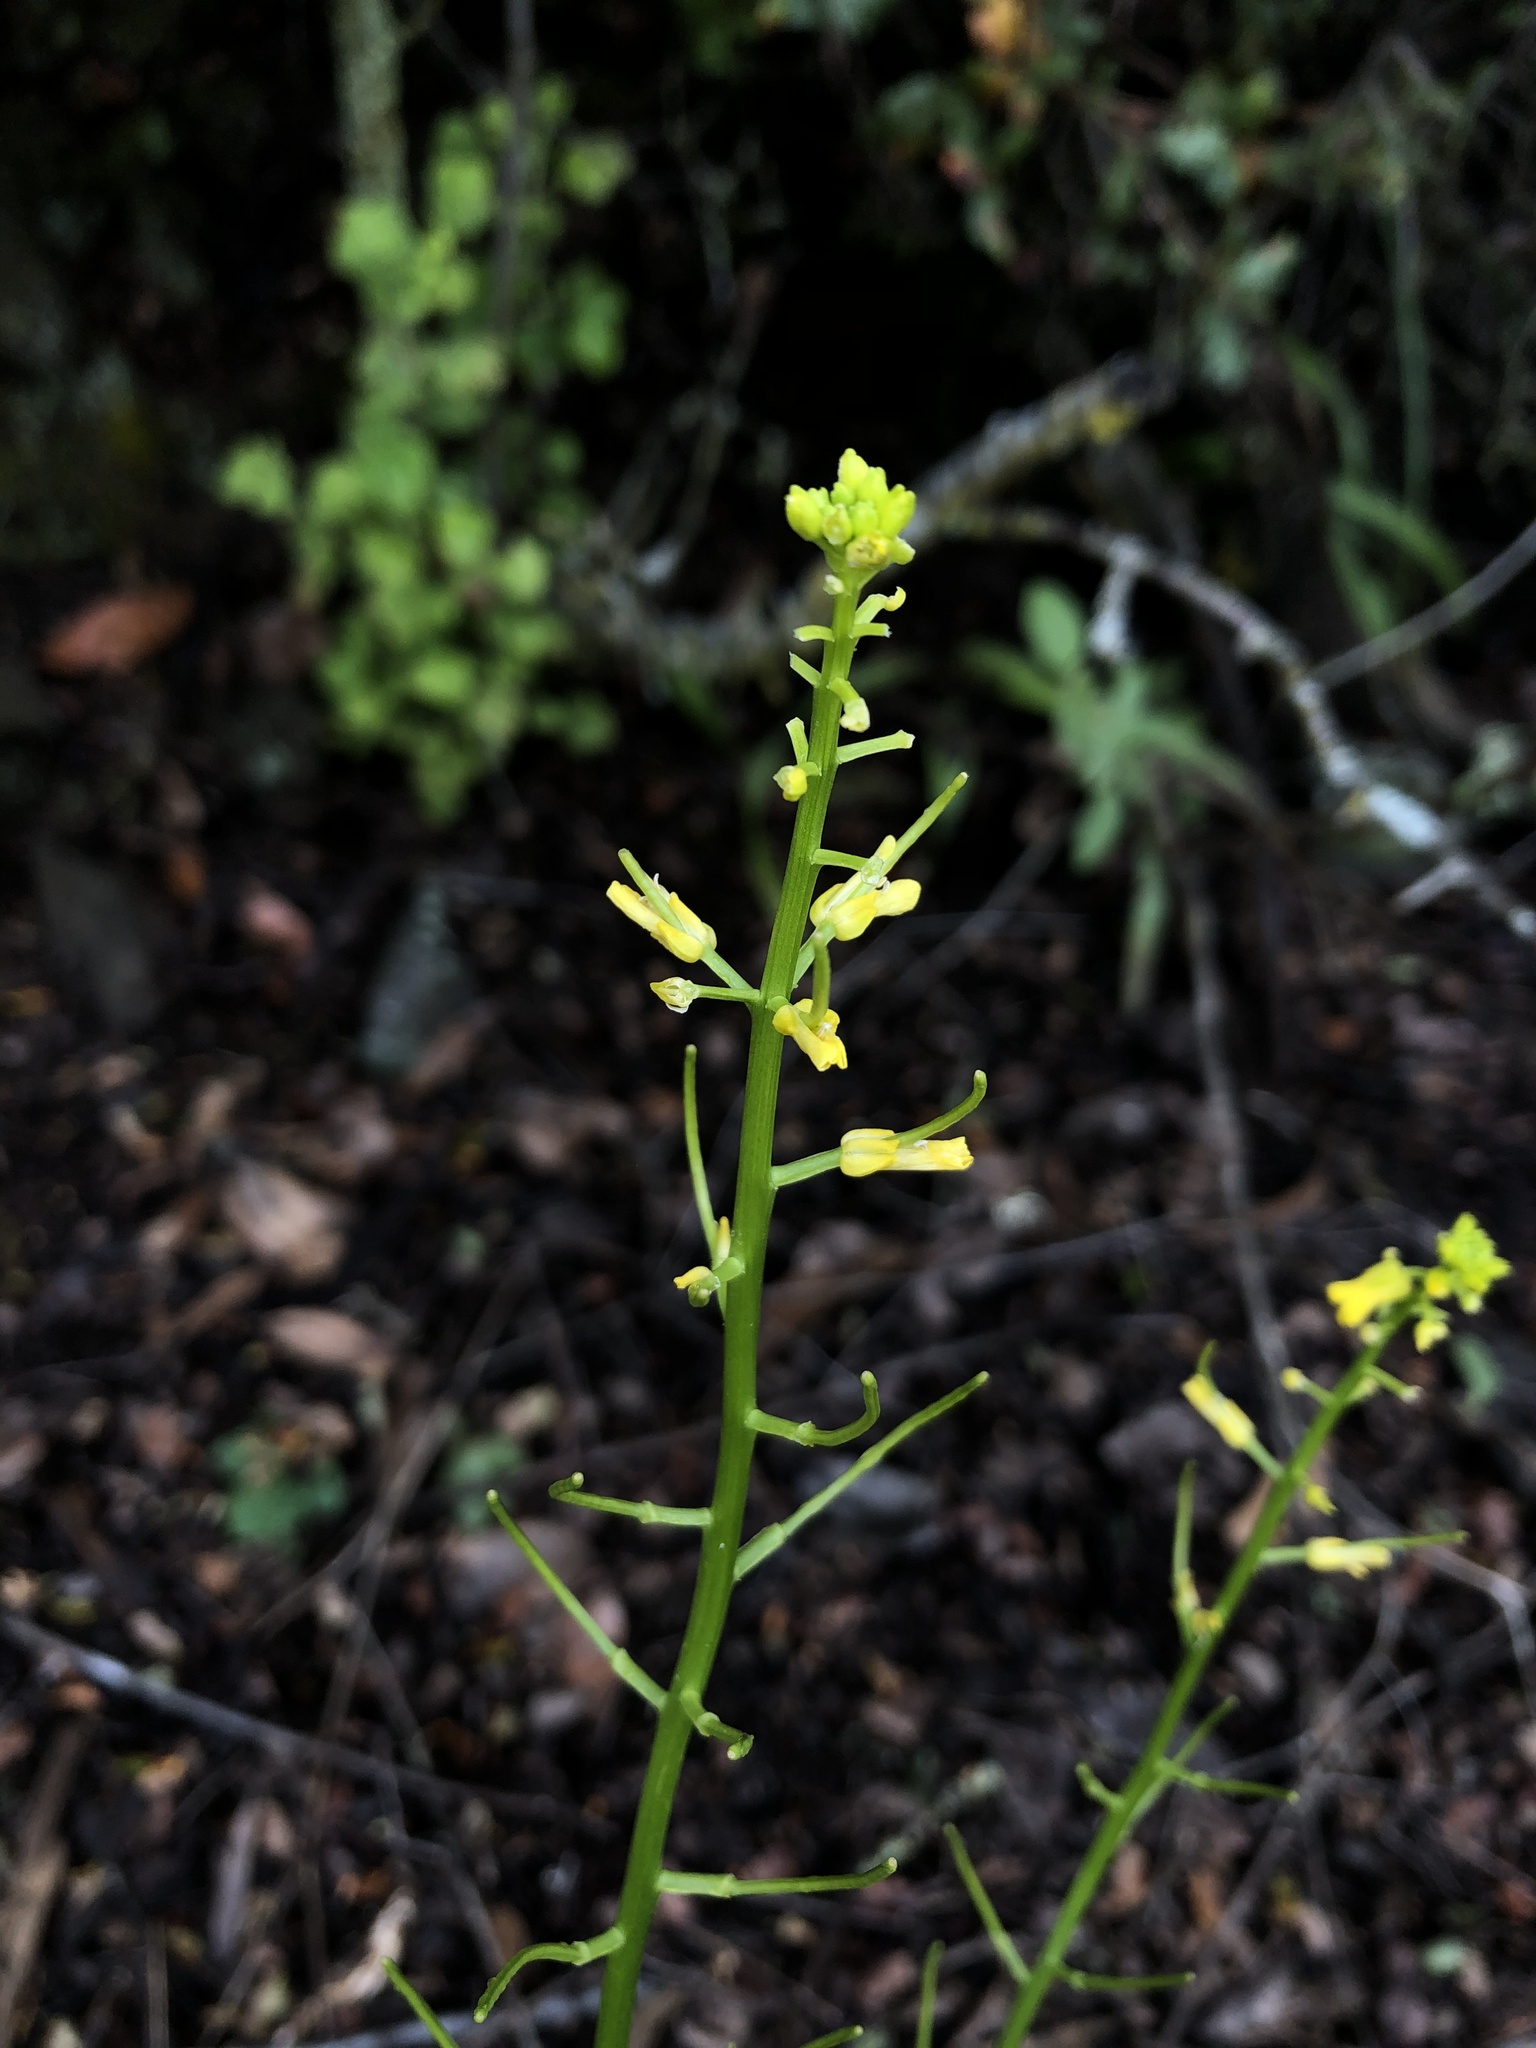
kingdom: Plantae
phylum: Tracheophyta
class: Magnoliopsida
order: Brassicales
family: Brassicaceae
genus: Barbarea
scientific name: Barbarea orthoceras
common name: American wintercress
